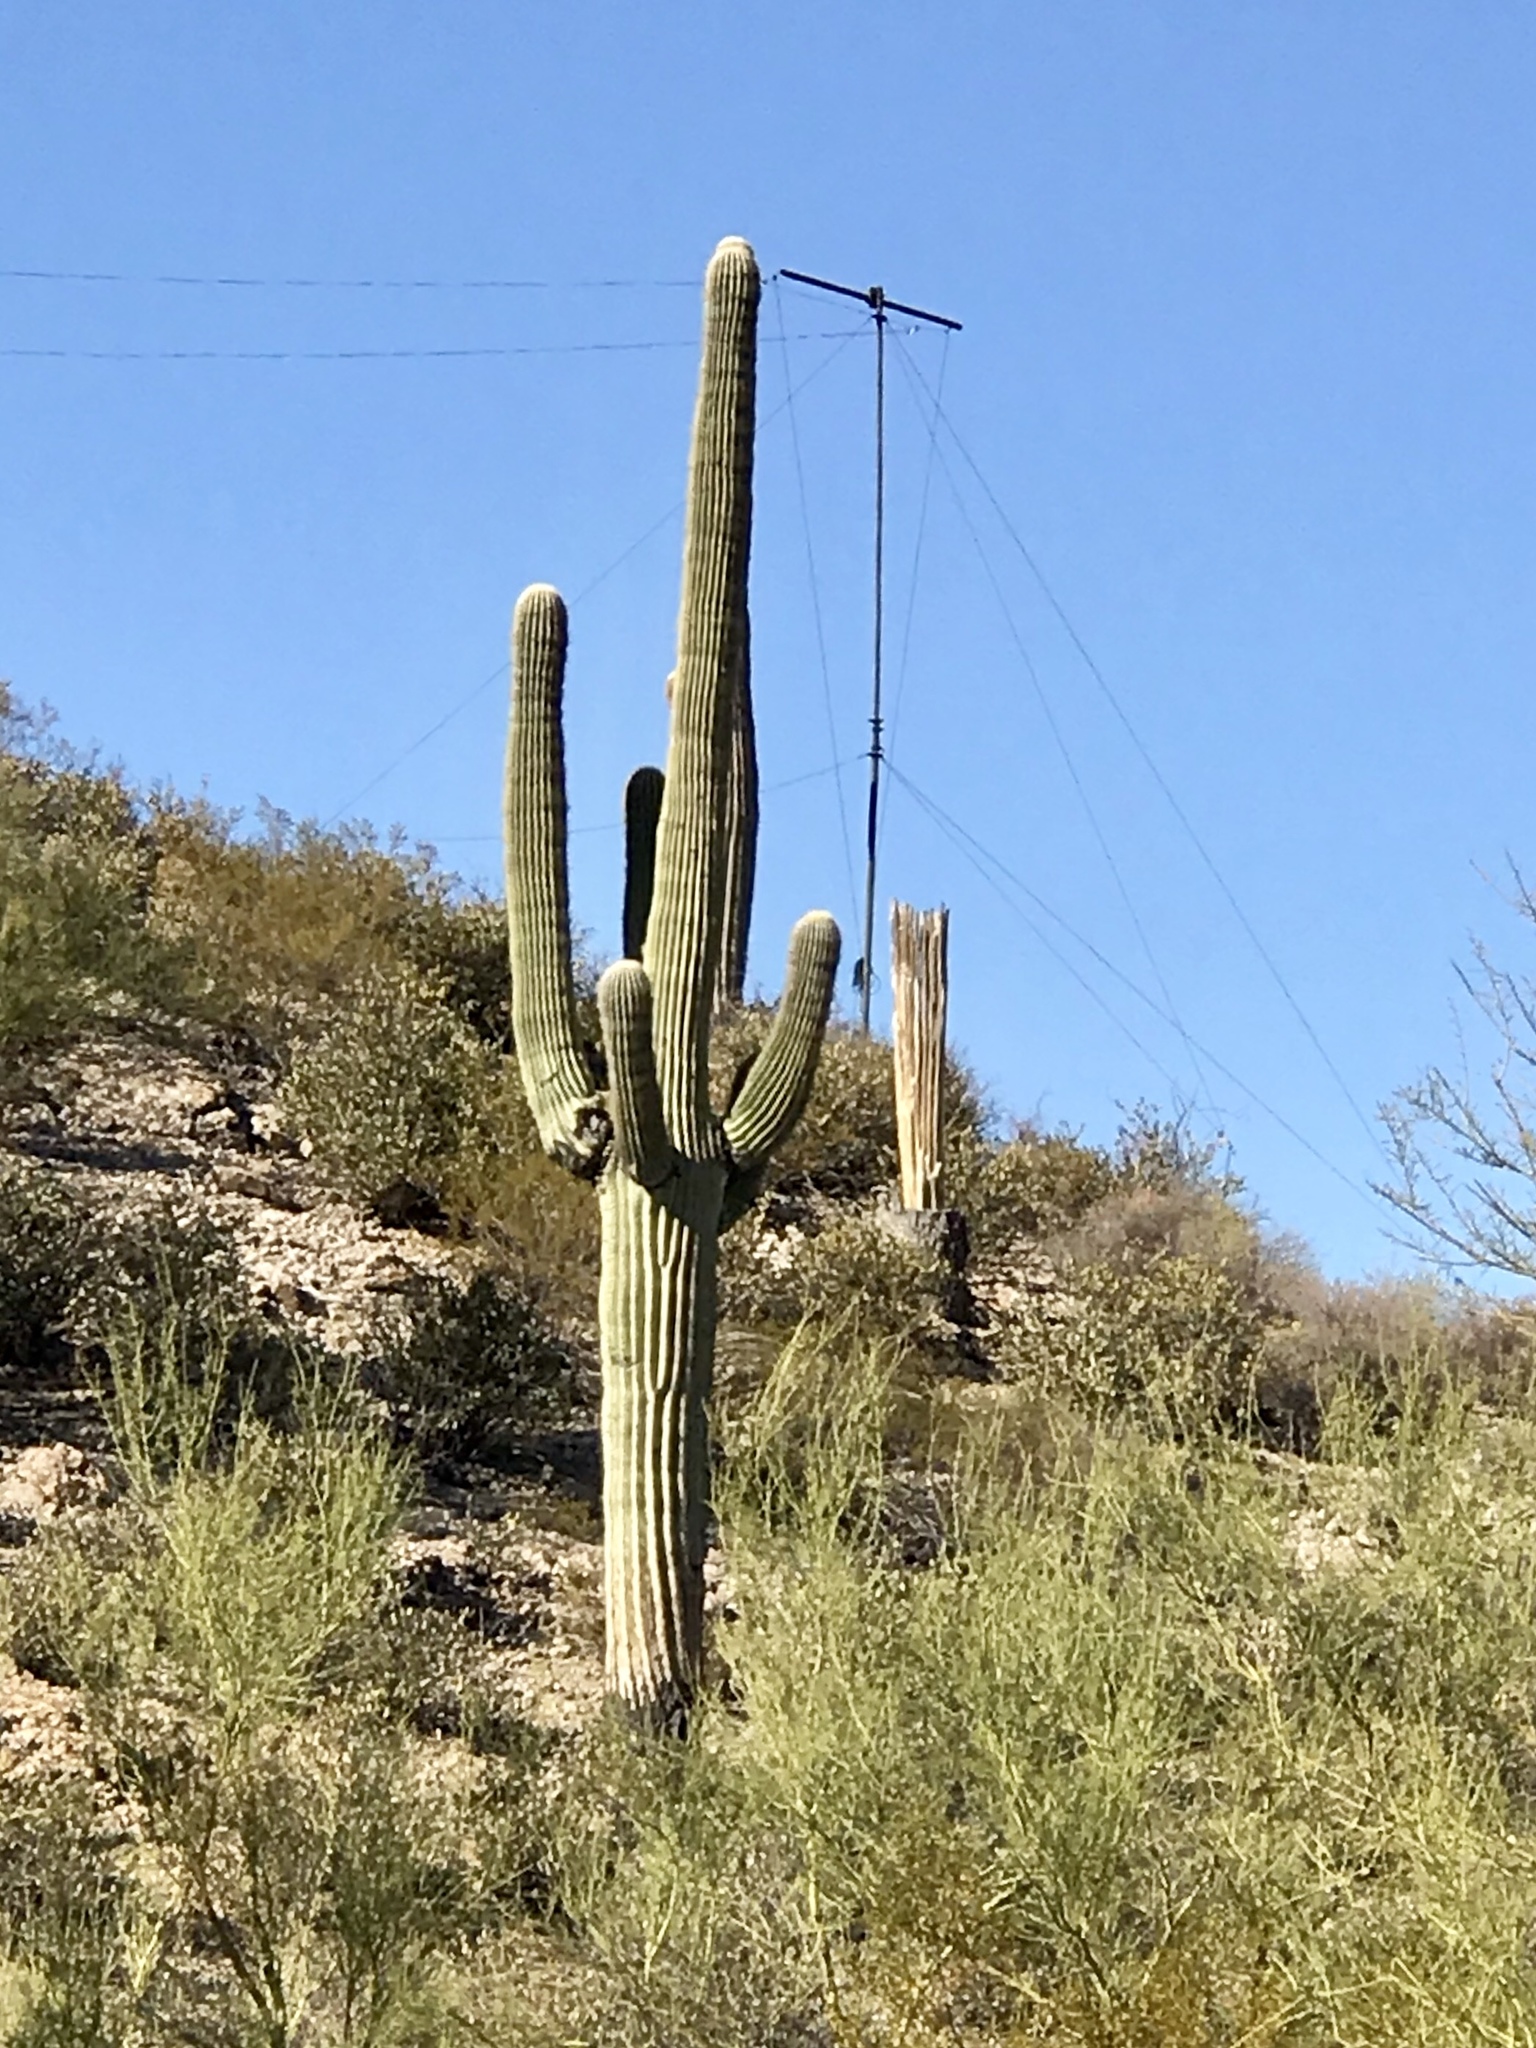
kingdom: Plantae
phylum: Tracheophyta
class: Magnoliopsida
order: Caryophyllales
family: Cactaceae
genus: Carnegiea
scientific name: Carnegiea gigantea
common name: Saguaro
